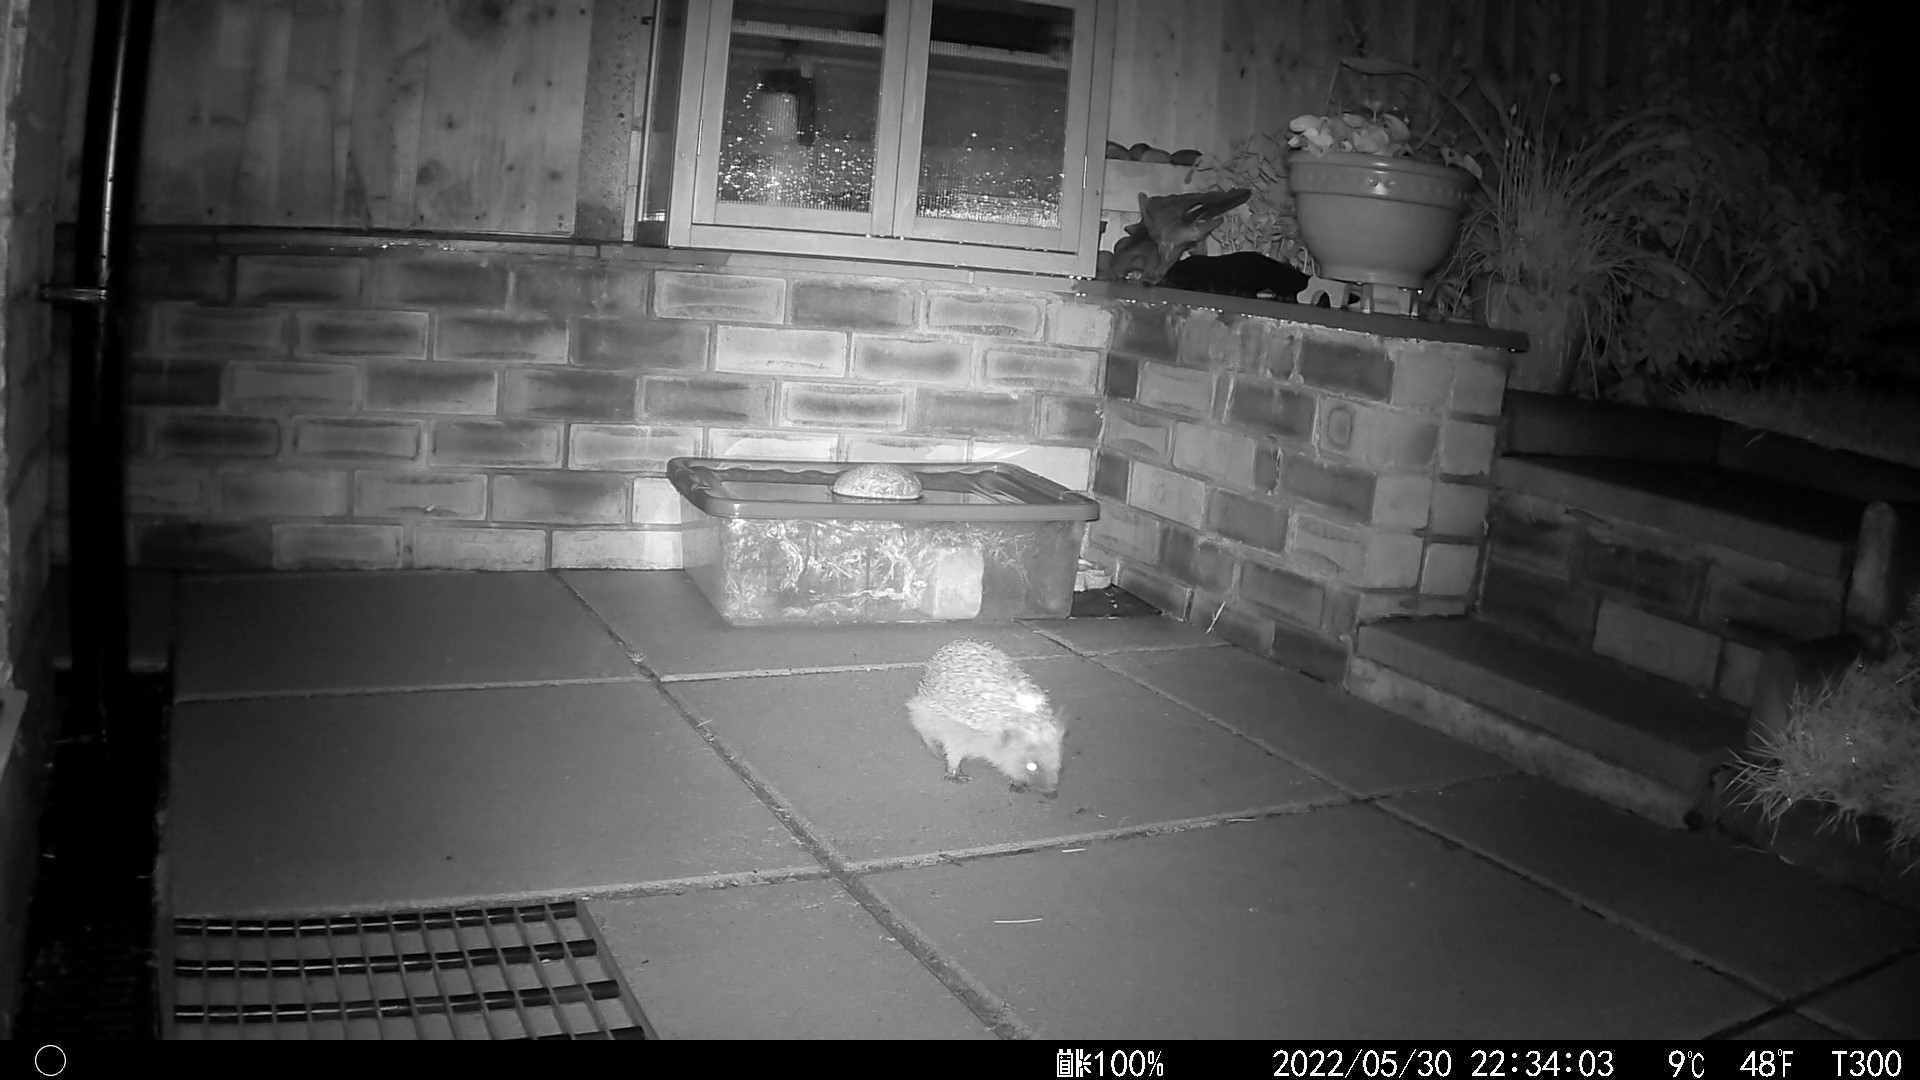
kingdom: Animalia
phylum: Chordata
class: Mammalia
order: Erinaceomorpha
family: Erinaceidae
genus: Erinaceus
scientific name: Erinaceus europaeus
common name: West european hedgehog
